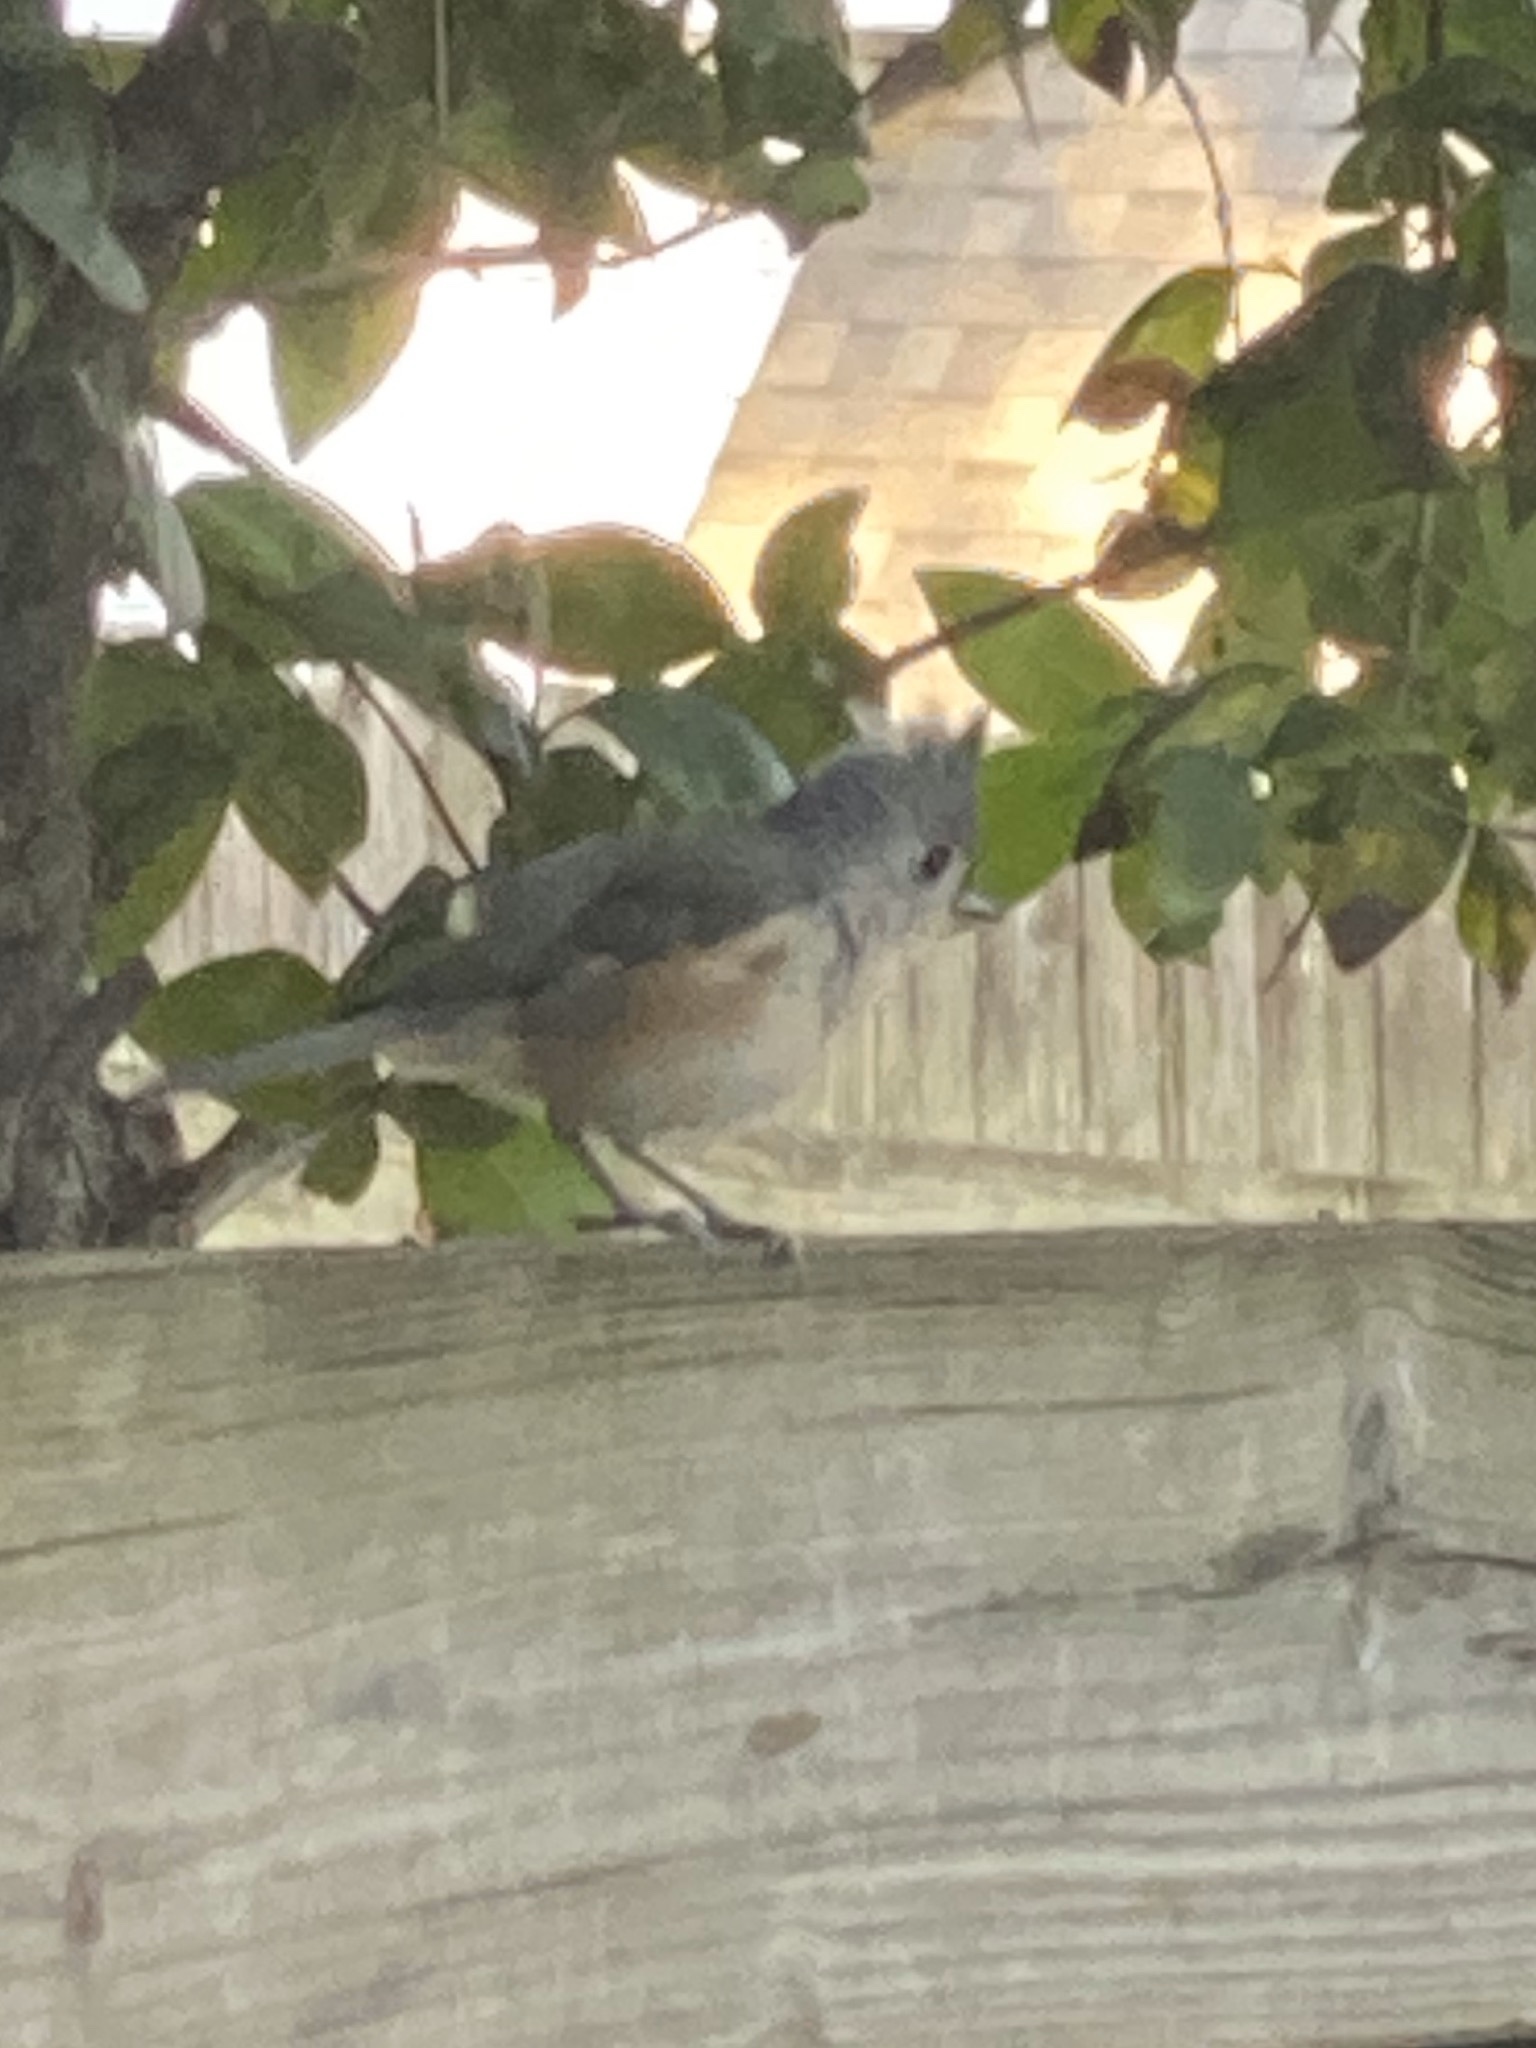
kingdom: Animalia
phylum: Chordata
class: Aves
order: Passeriformes
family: Paridae
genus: Baeolophus
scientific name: Baeolophus bicolor
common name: Tufted titmouse
